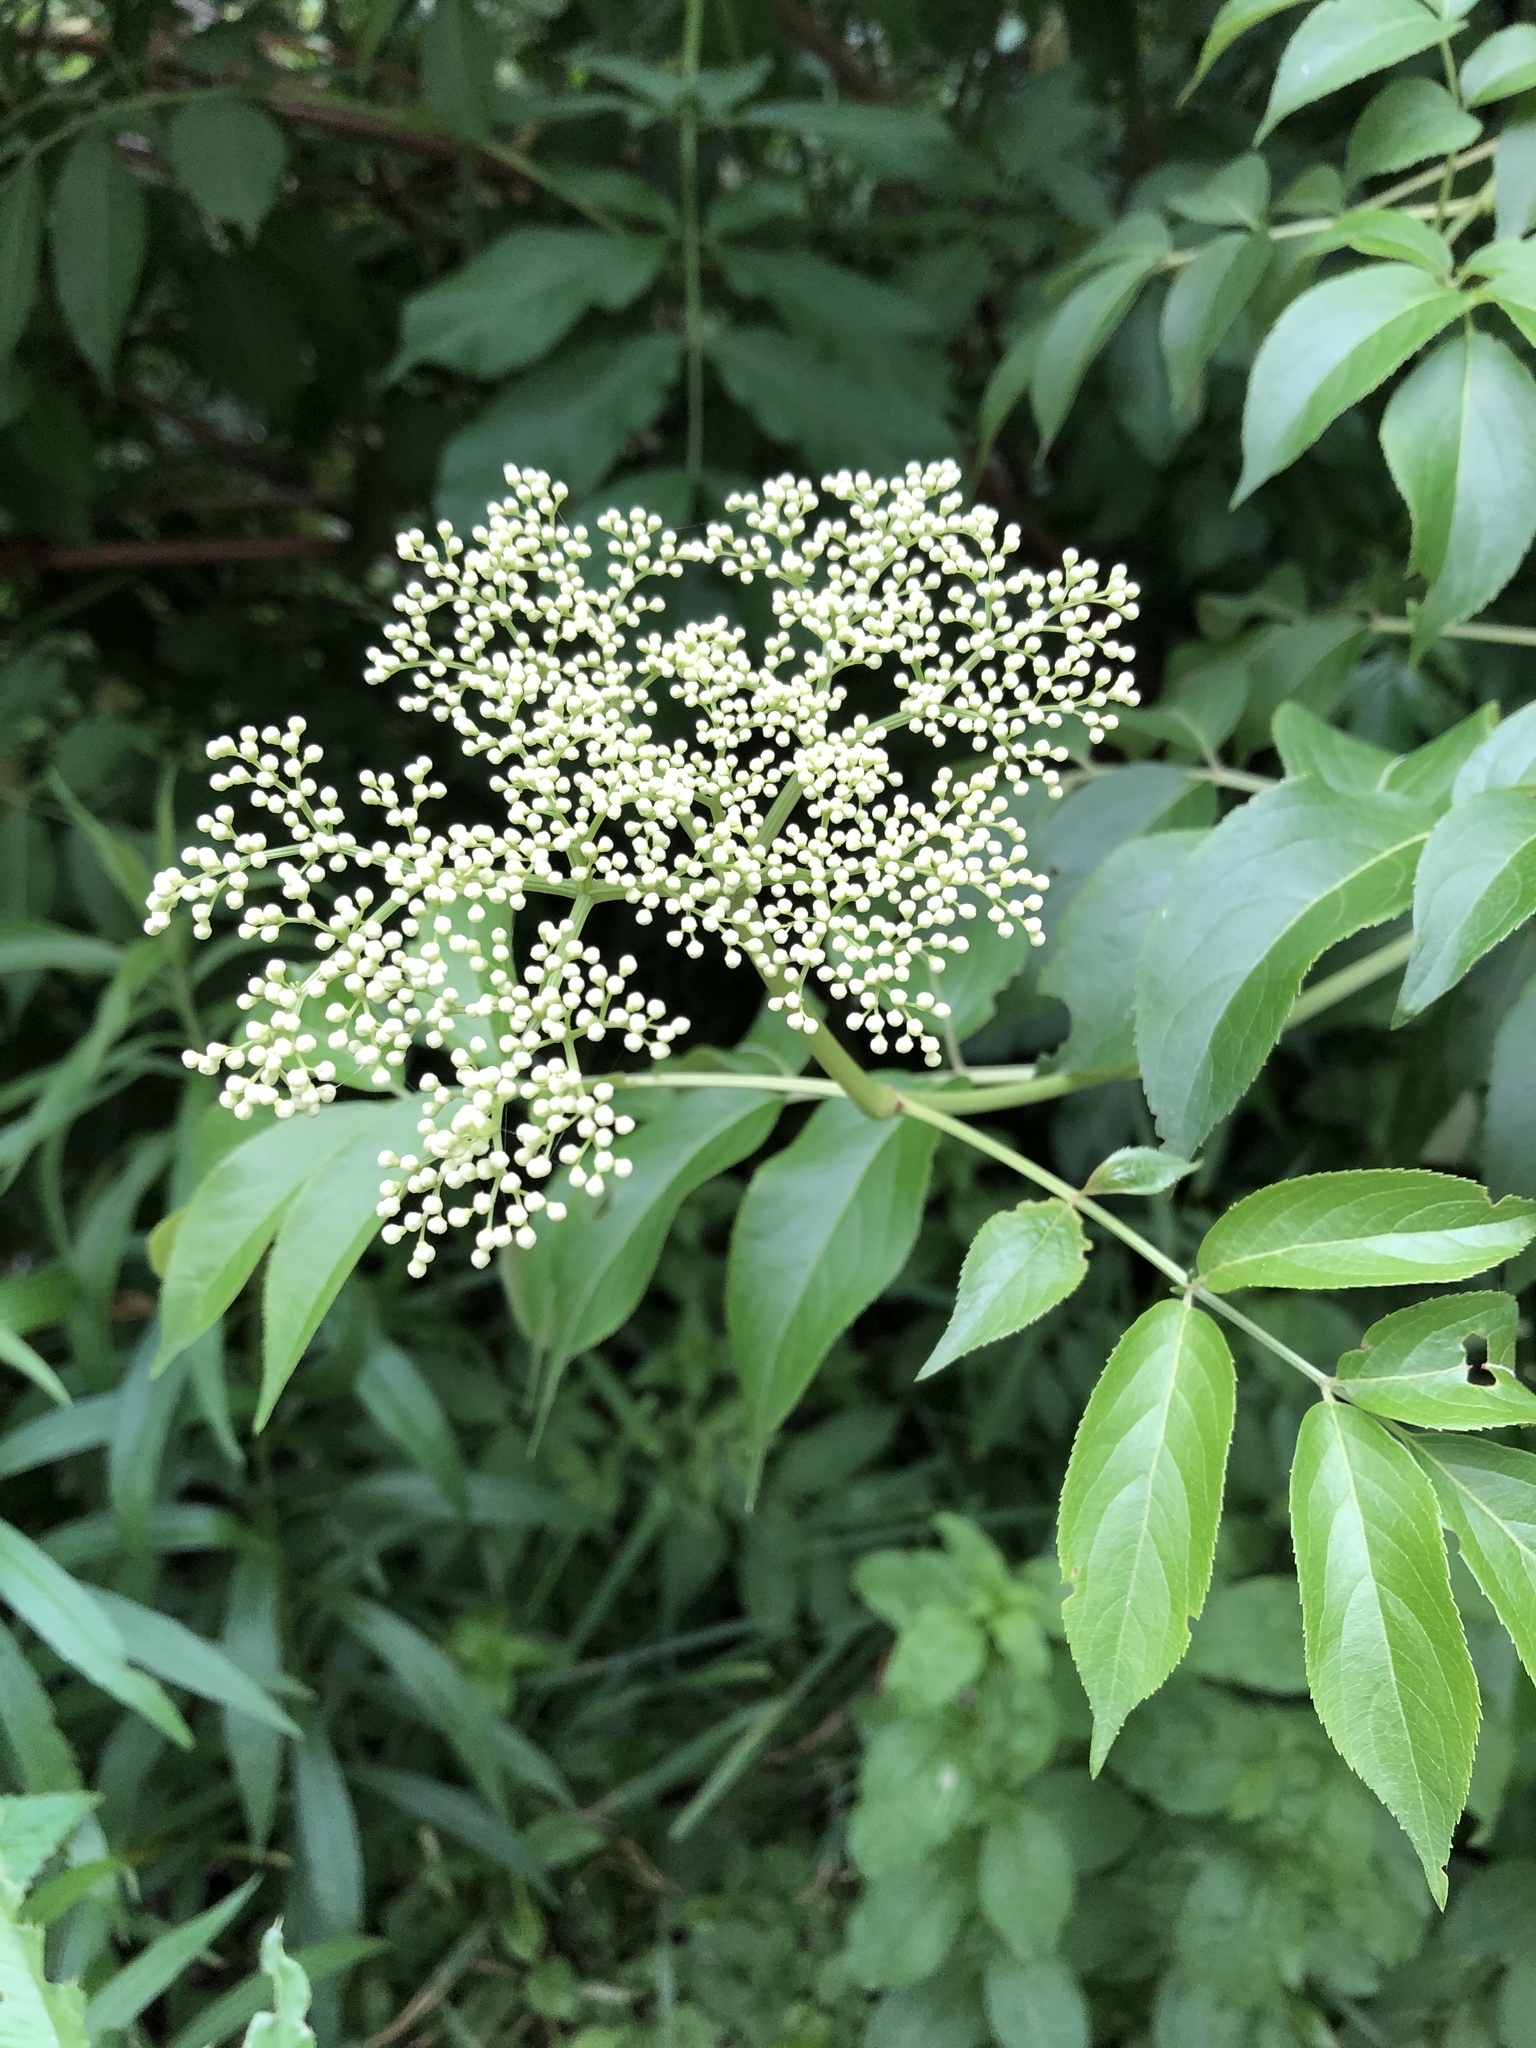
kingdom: Plantae
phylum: Tracheophyta
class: Magnoliopsida
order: Dipsacales
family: Viburnaceae
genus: Sambucus
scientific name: Sambucus canadensis
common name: American elder
